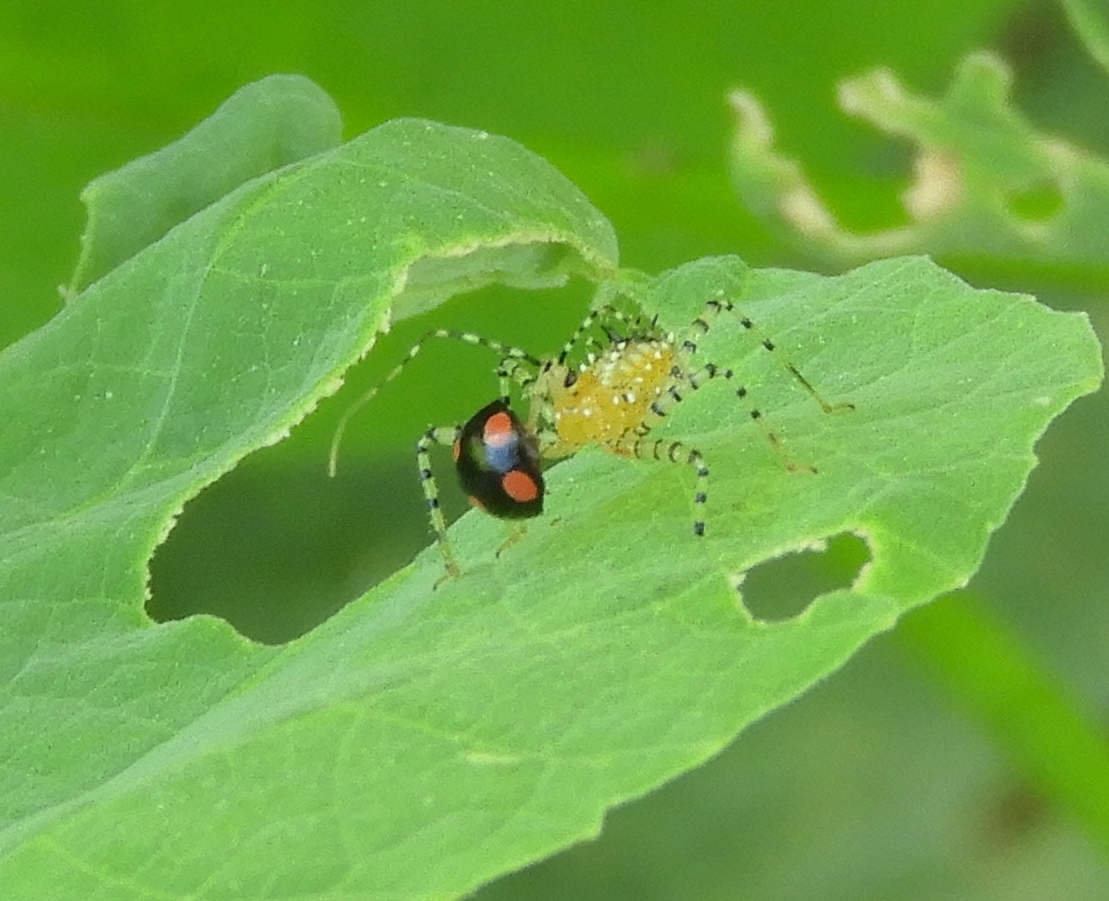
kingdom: Animalia
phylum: Arthropoda
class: Insecta
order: Hemiptera
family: Reduviidae
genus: Pselliopus
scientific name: Pselliopus
